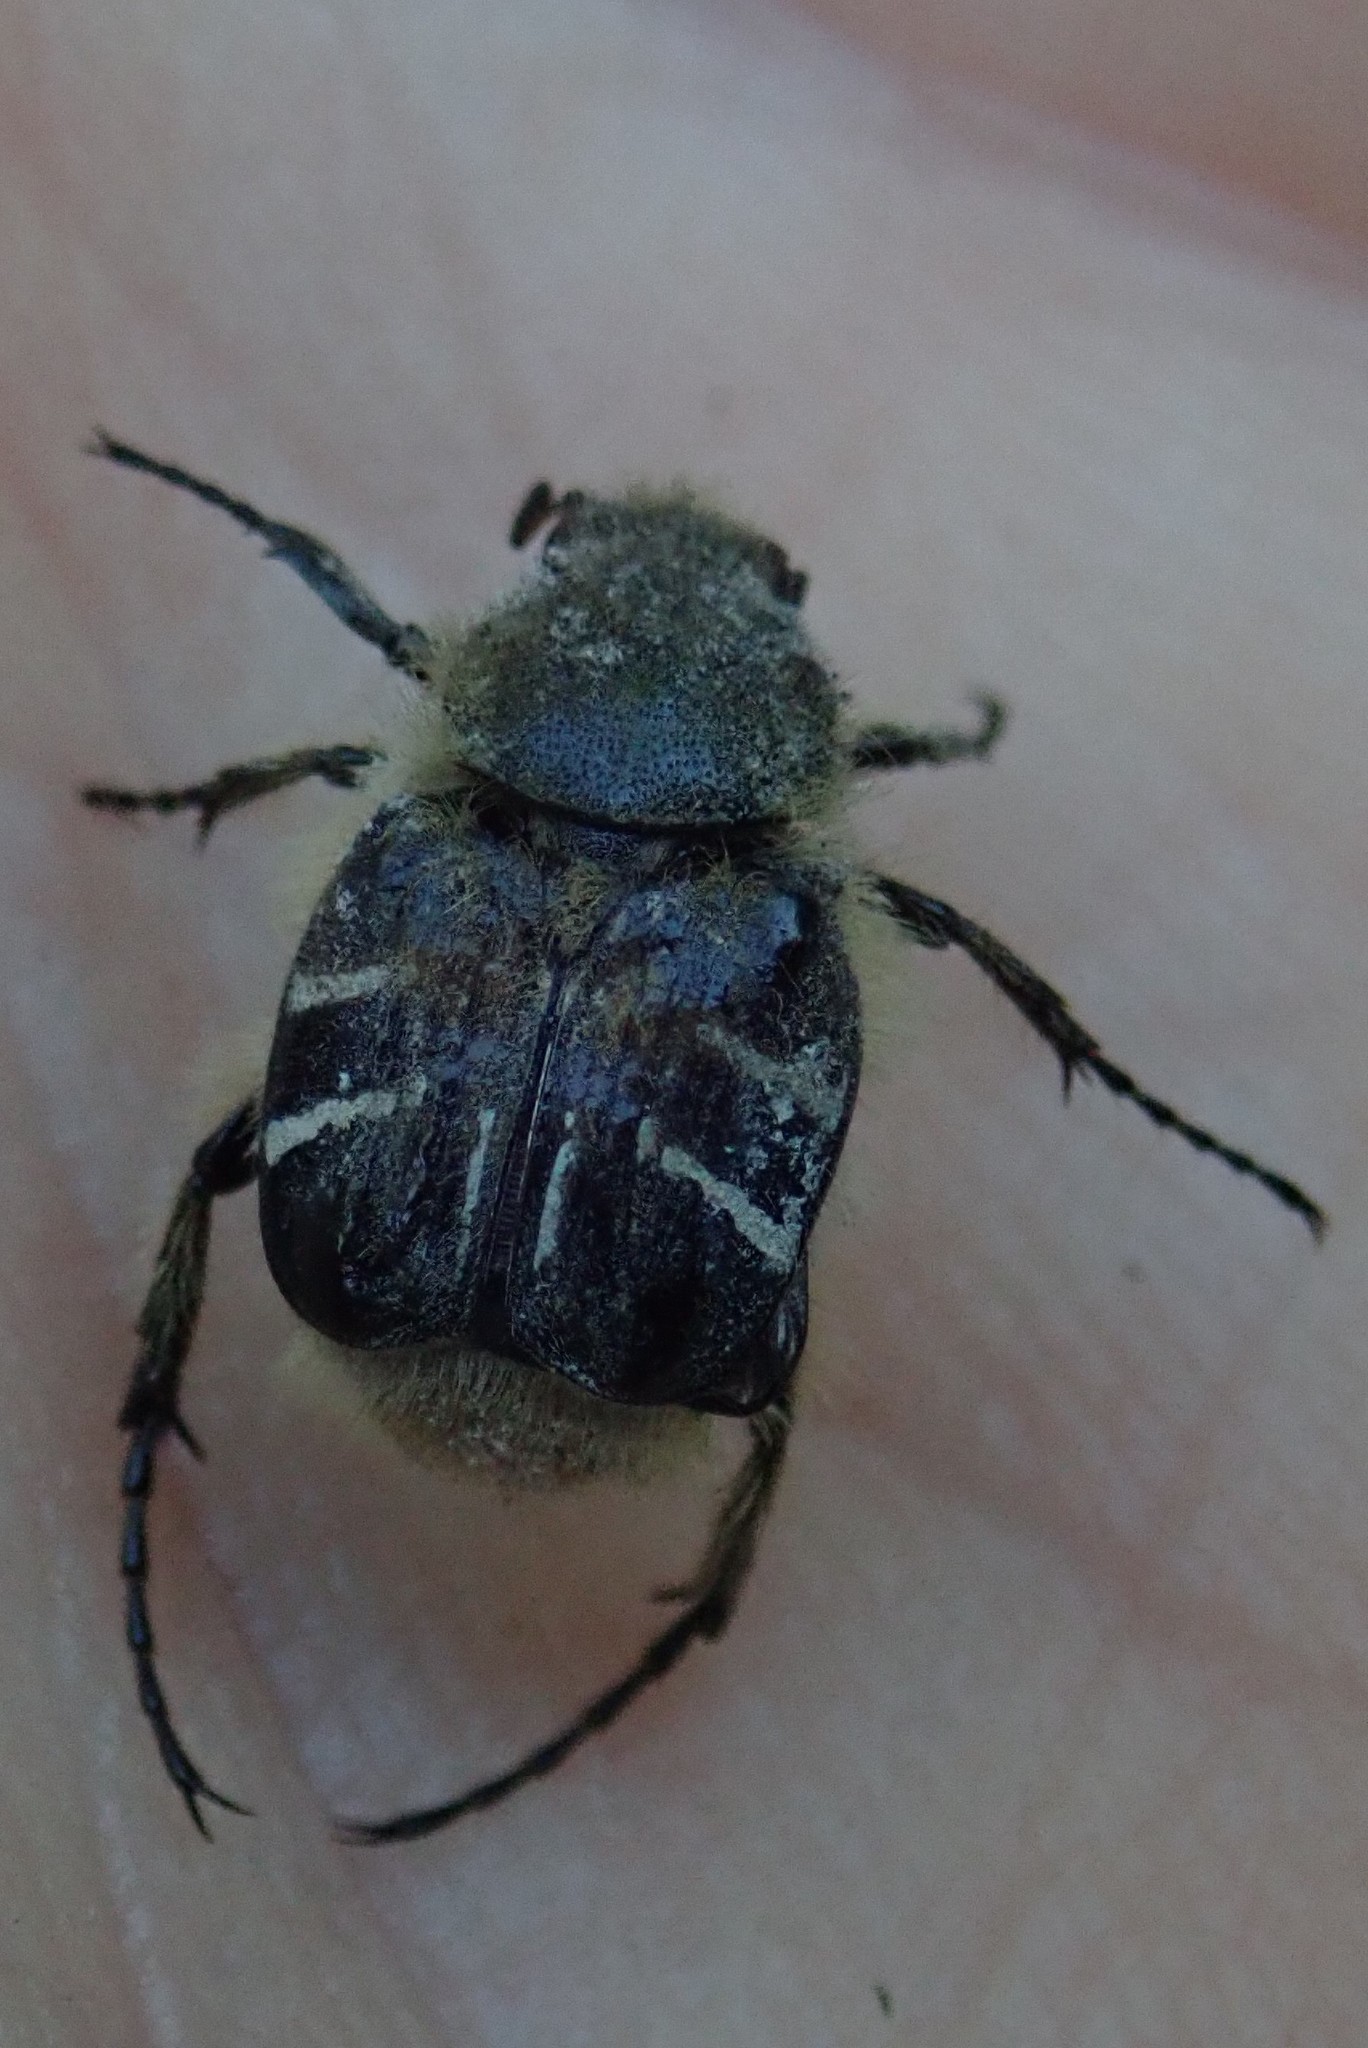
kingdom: Animalia
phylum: Arthropoda
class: Insecta
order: Coleoptera
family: Scarabaeidae
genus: Trichiotinus
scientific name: Trichiotinus assimilis
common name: Bee-mimic beetle
